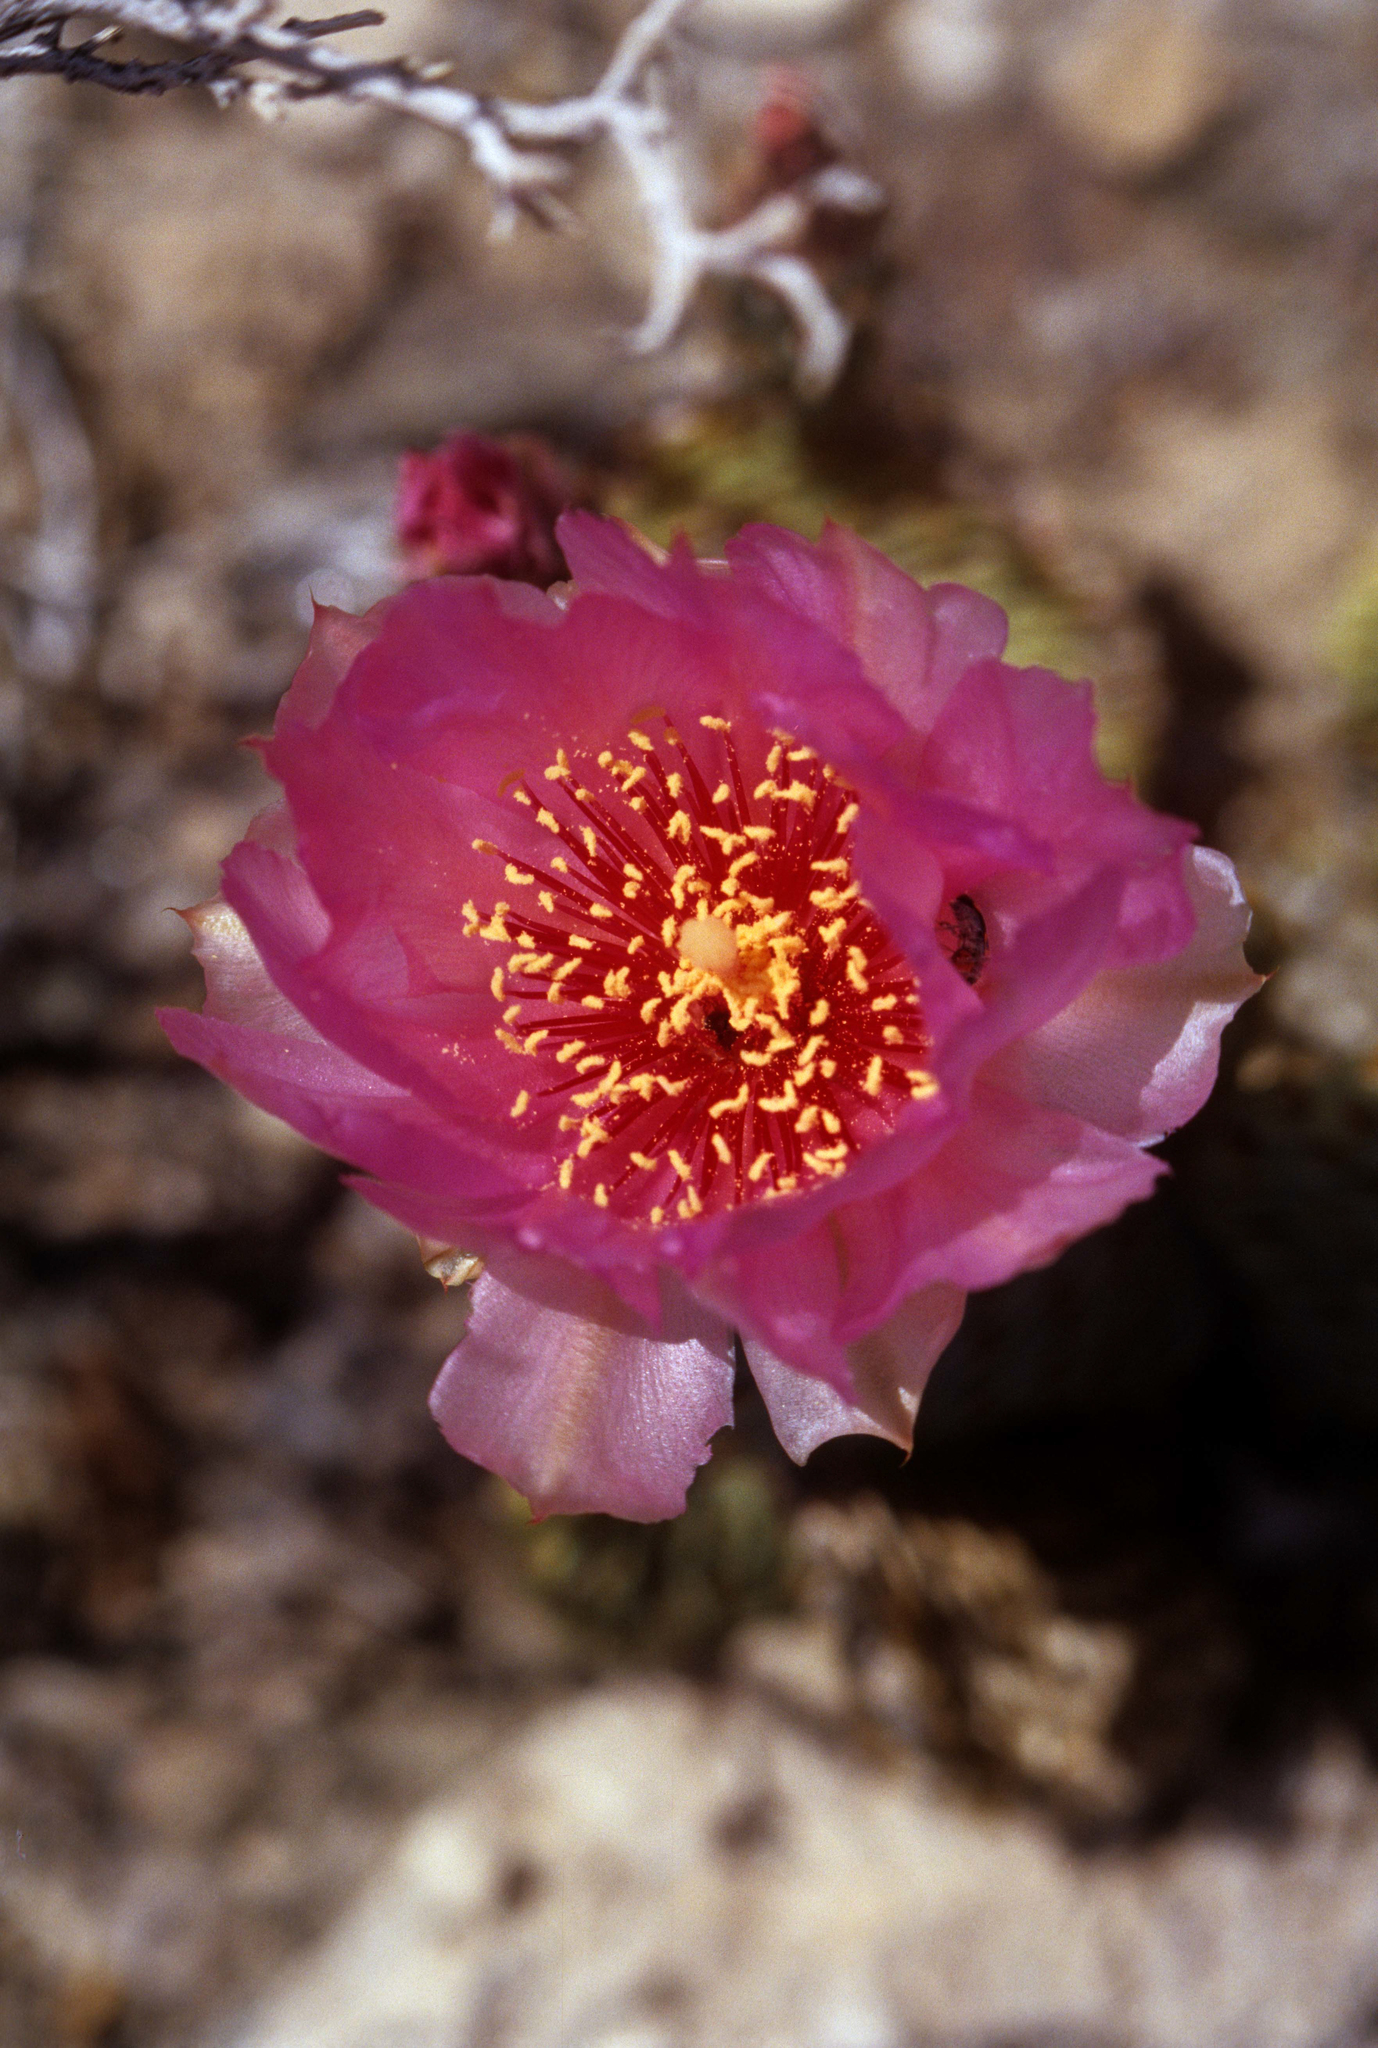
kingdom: Plantae
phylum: Tracheophyta
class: Magnoliopsida
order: Caryophyllales
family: Cactaceae
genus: Opuntia
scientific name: Opuntia basilaris
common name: Beavertail prickly-pear
